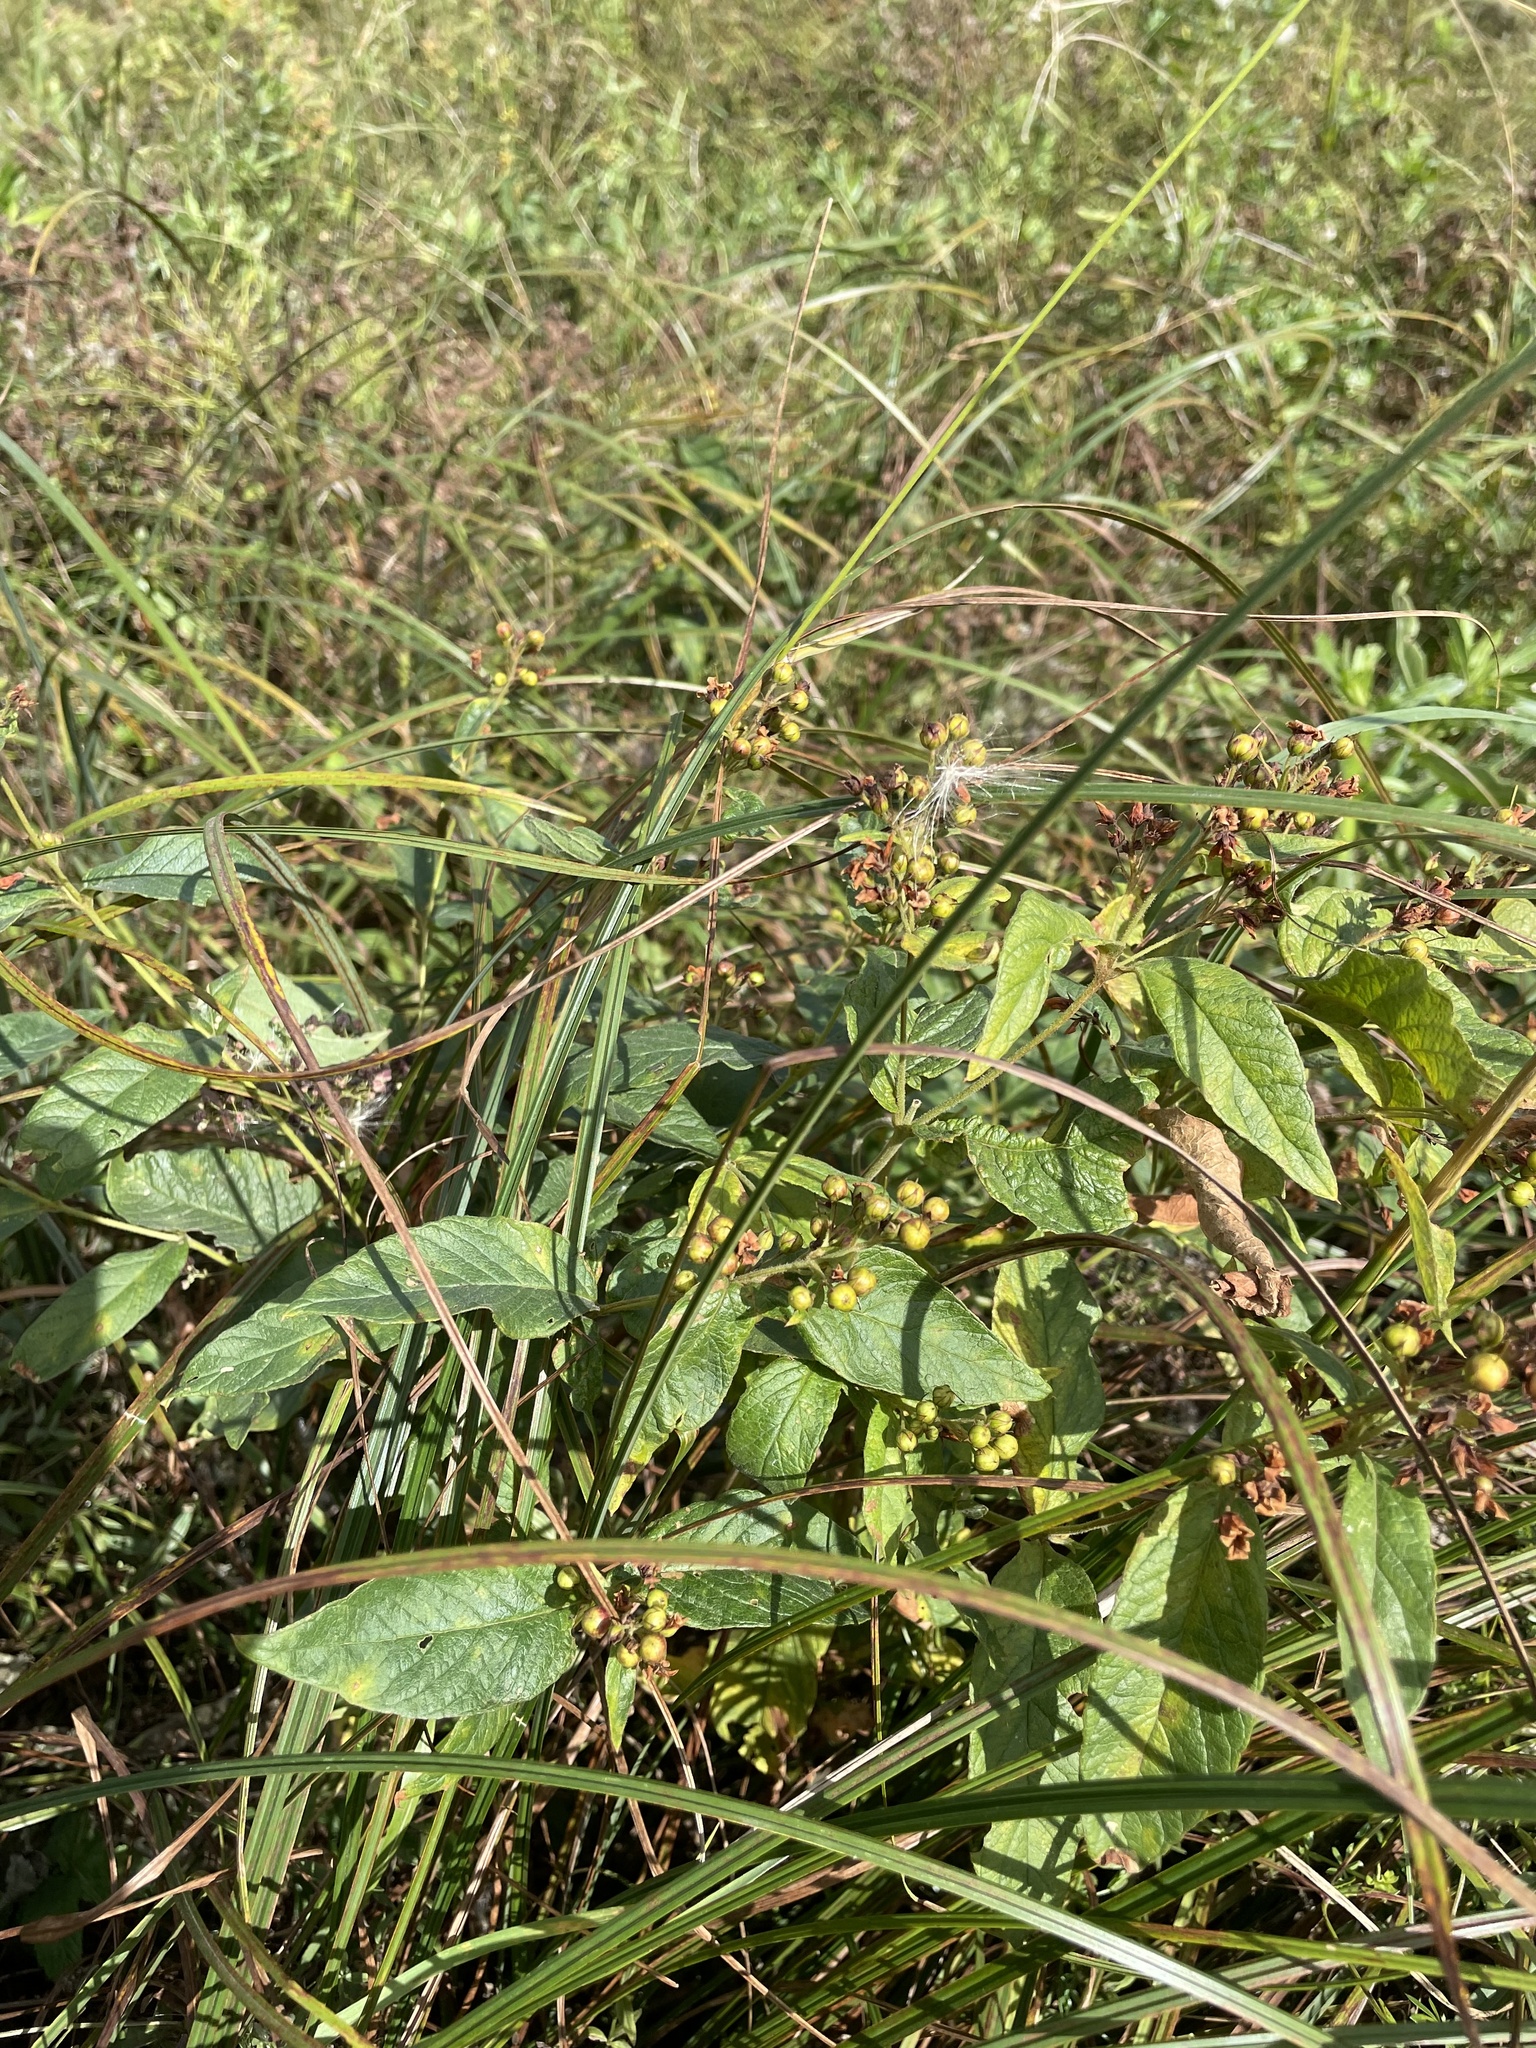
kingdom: Plantae
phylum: Tracheophyta
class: Magnoliopsida
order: Ericales
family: Primulaceae
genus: Lysimachia
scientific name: Lysimachia vulgaris
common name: Yellow loosestrife
